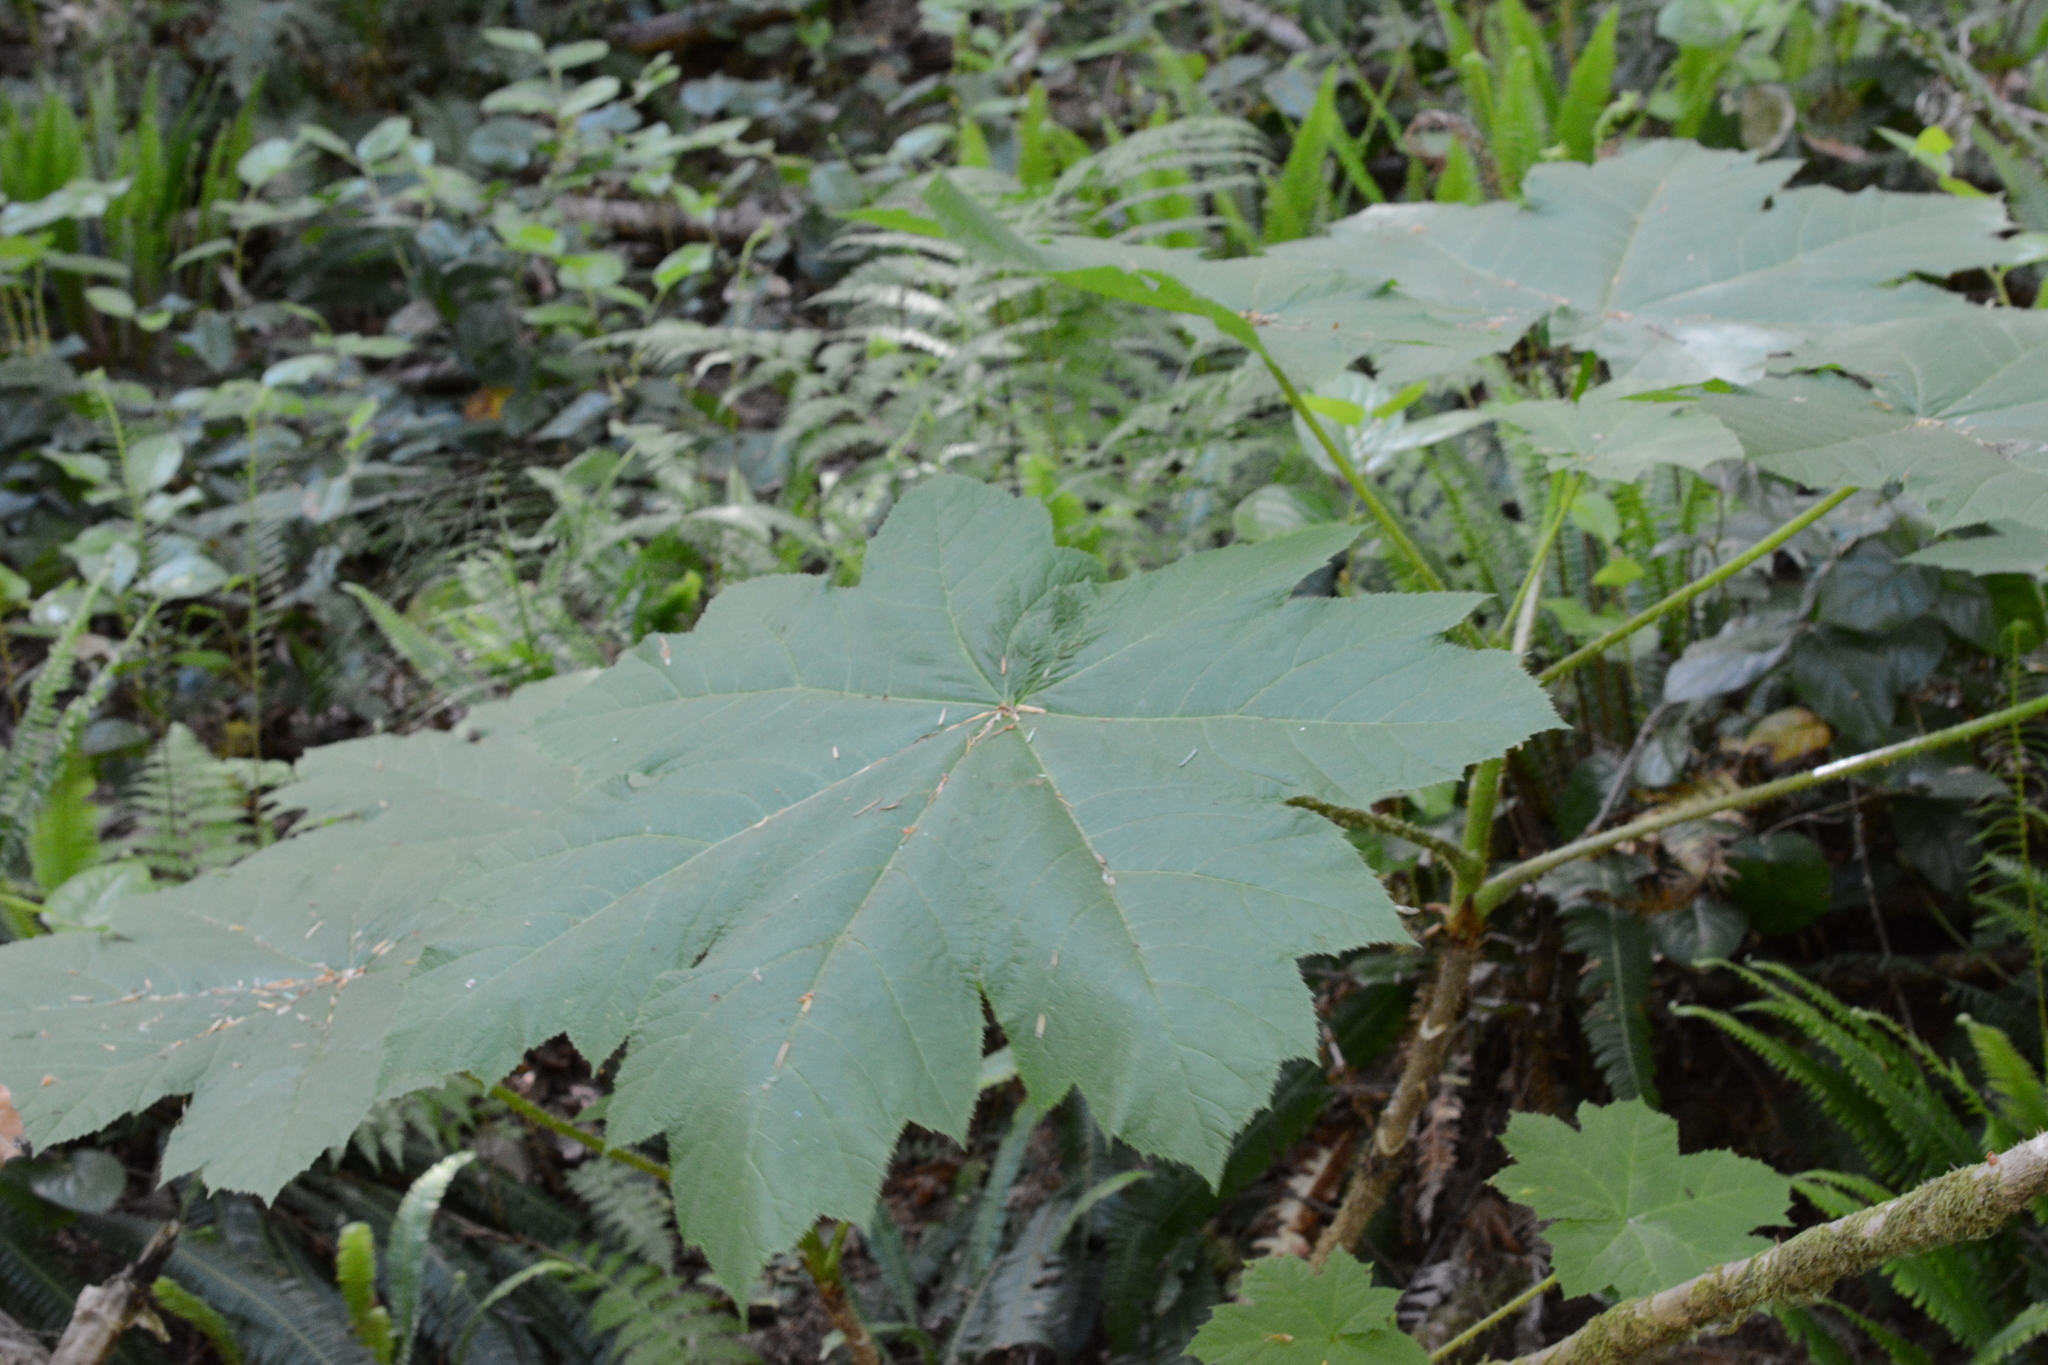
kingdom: Plantae
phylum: Tracheophyta
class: Magnoliopsida
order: Apiales
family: Araliaceae
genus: Oplopanax
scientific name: Oplopanax horridus
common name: Devil's walking-stick
